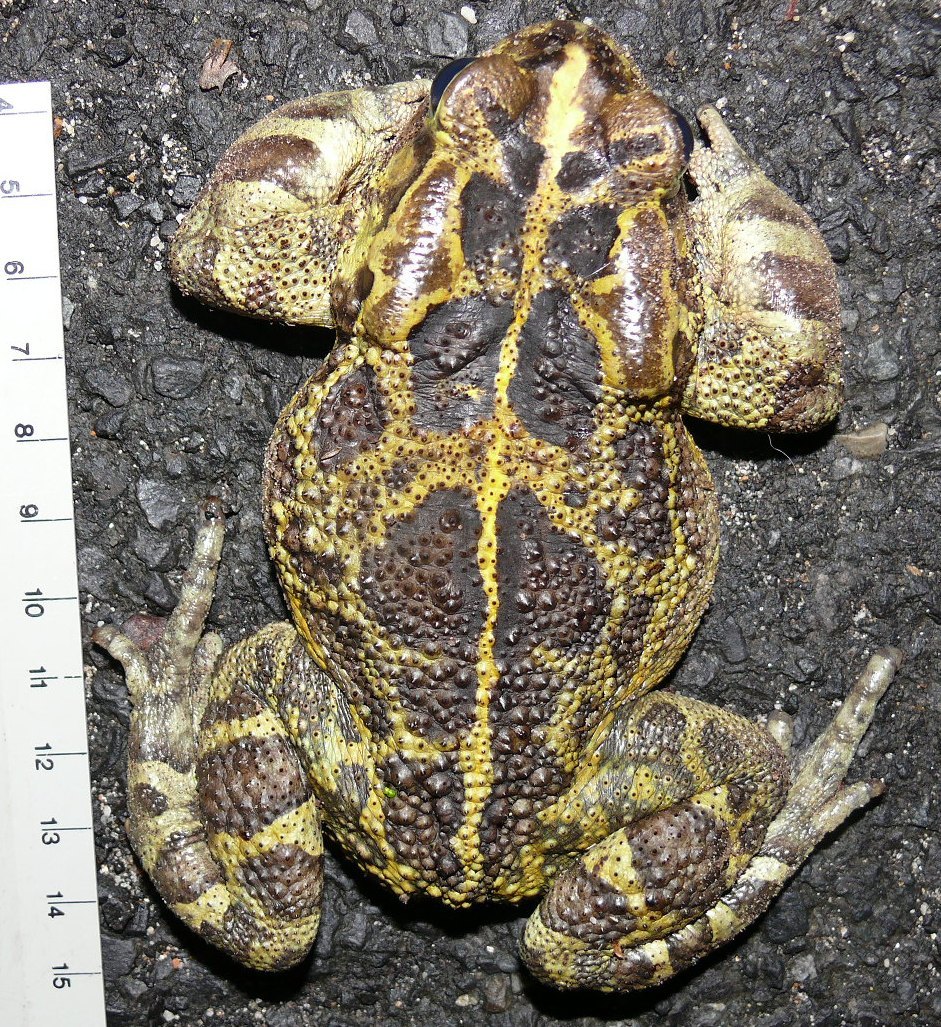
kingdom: Animalia
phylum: Chordata
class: Amphibia
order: Anura
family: Bufonidae
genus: Sclerophrys
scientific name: Sclerophrys pantherina
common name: Panther toad
